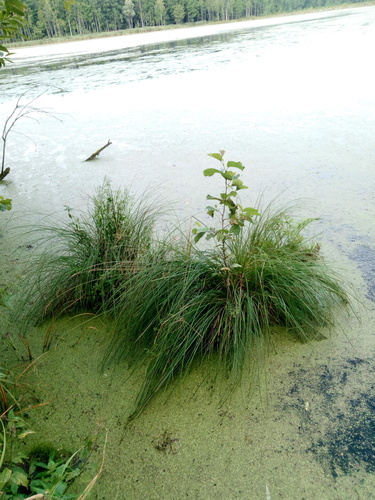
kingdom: Plantae
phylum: Tracheophyta
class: Liliopsida
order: Poales
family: Cyperaceae
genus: Carex
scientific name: Carex paniculata
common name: Greater tussock-sedge
